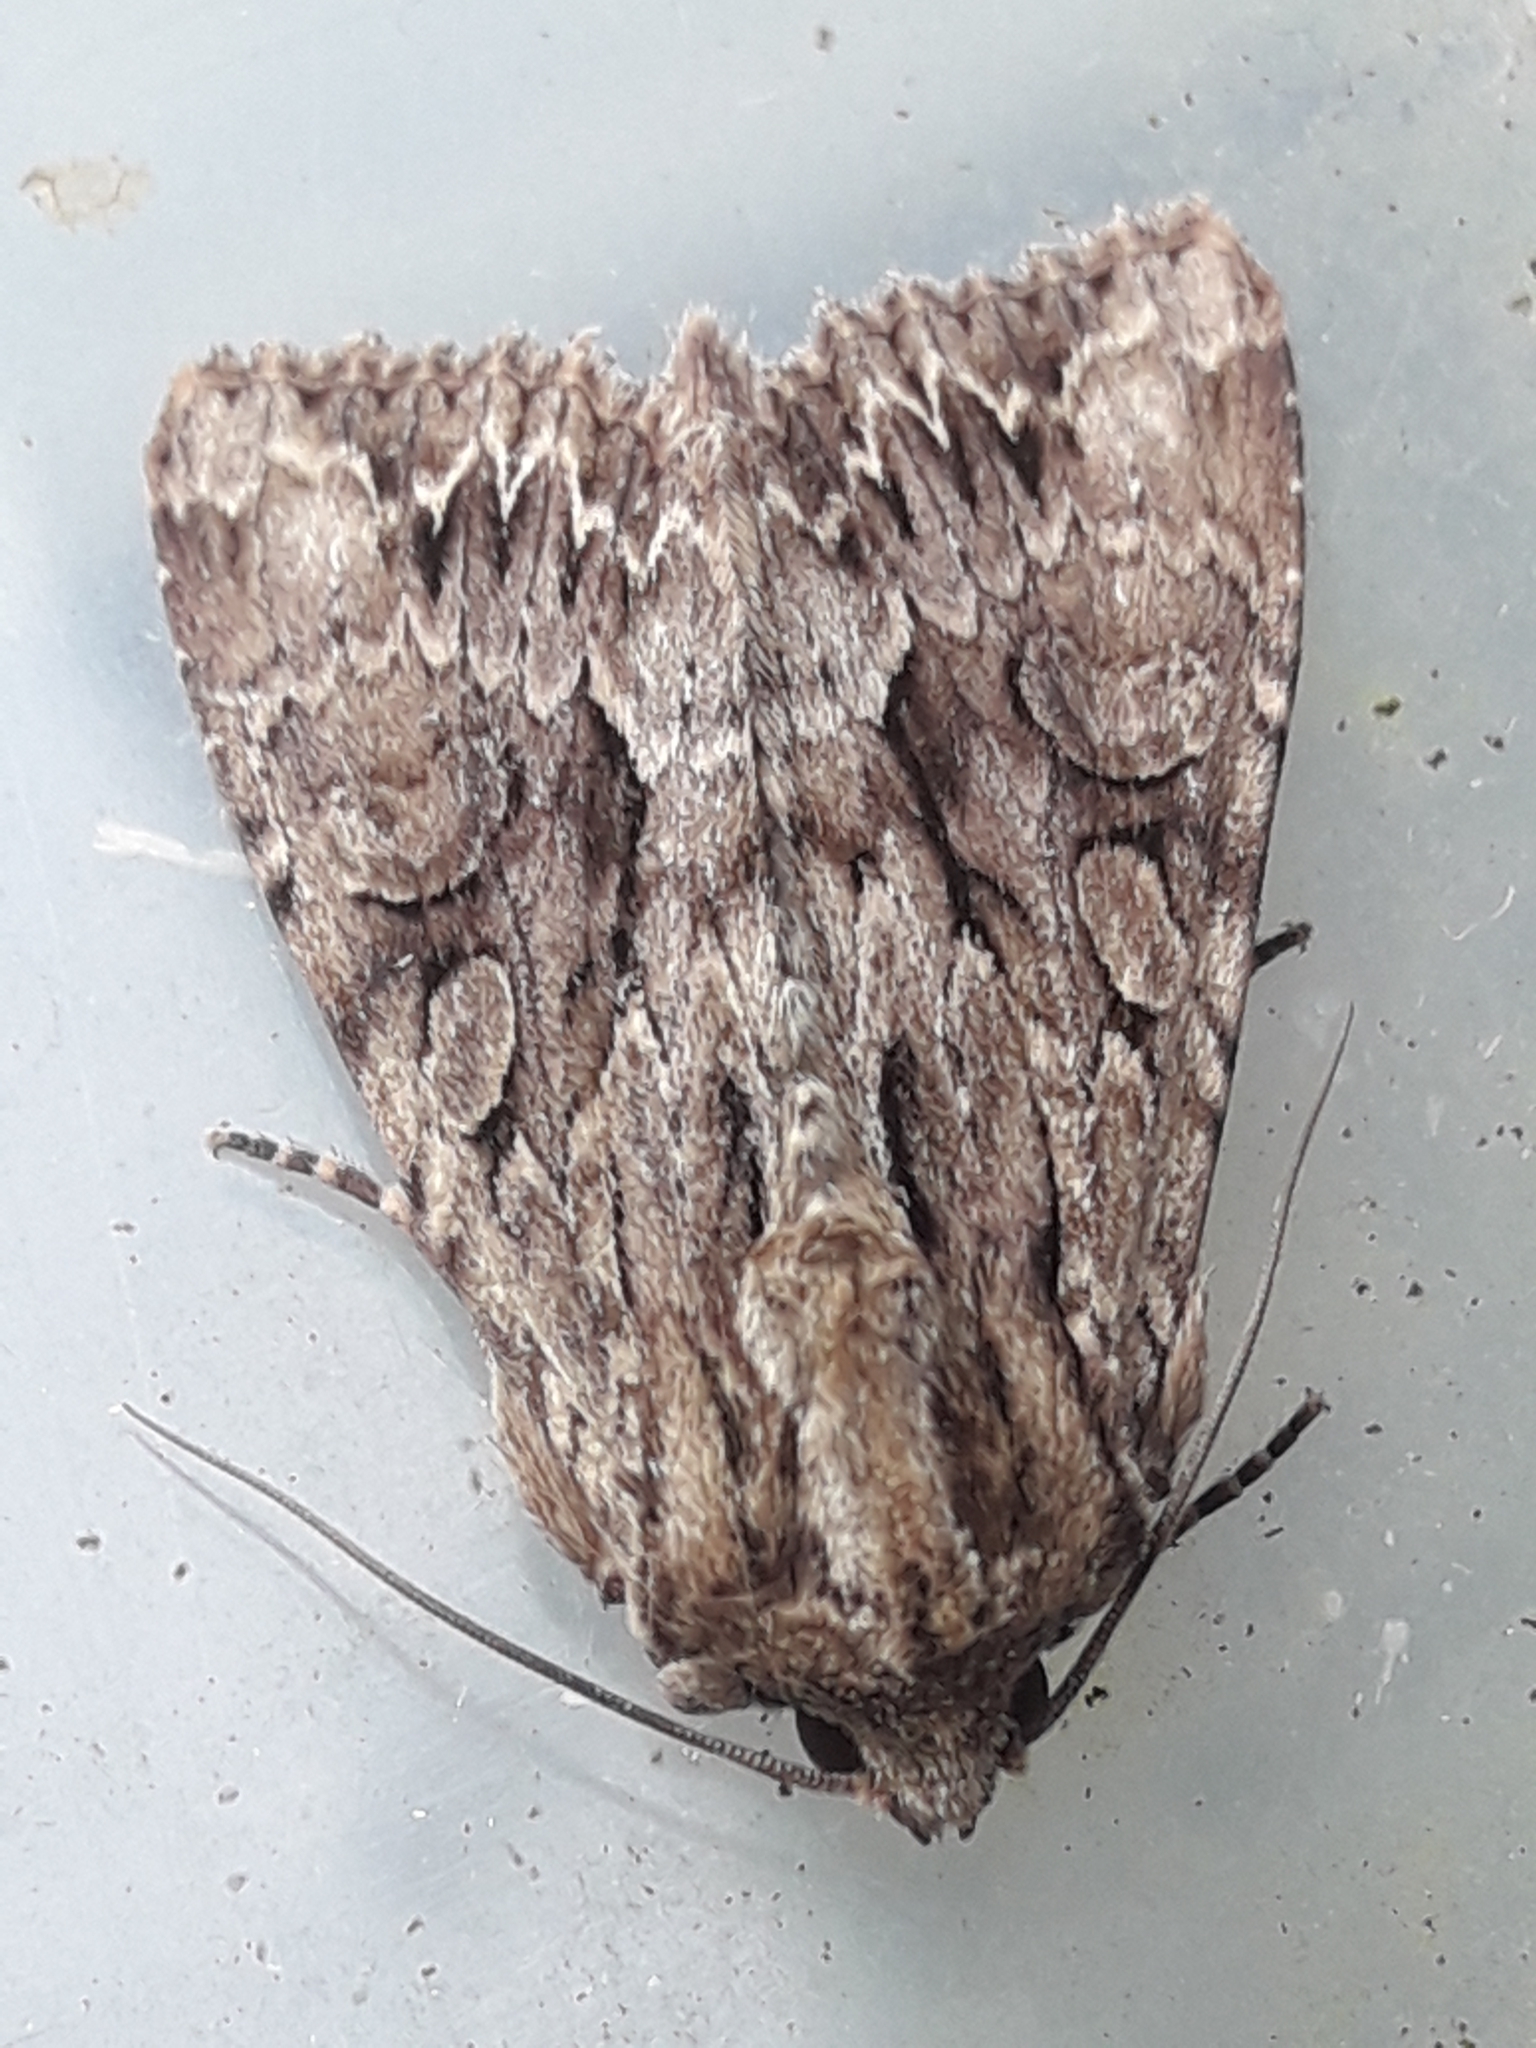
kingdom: Animalia
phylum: Arthropoda
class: Insecta
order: Lepidoptera
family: Noctuidae
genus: Apamea
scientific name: Apamea monoglypha
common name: Dark arches
